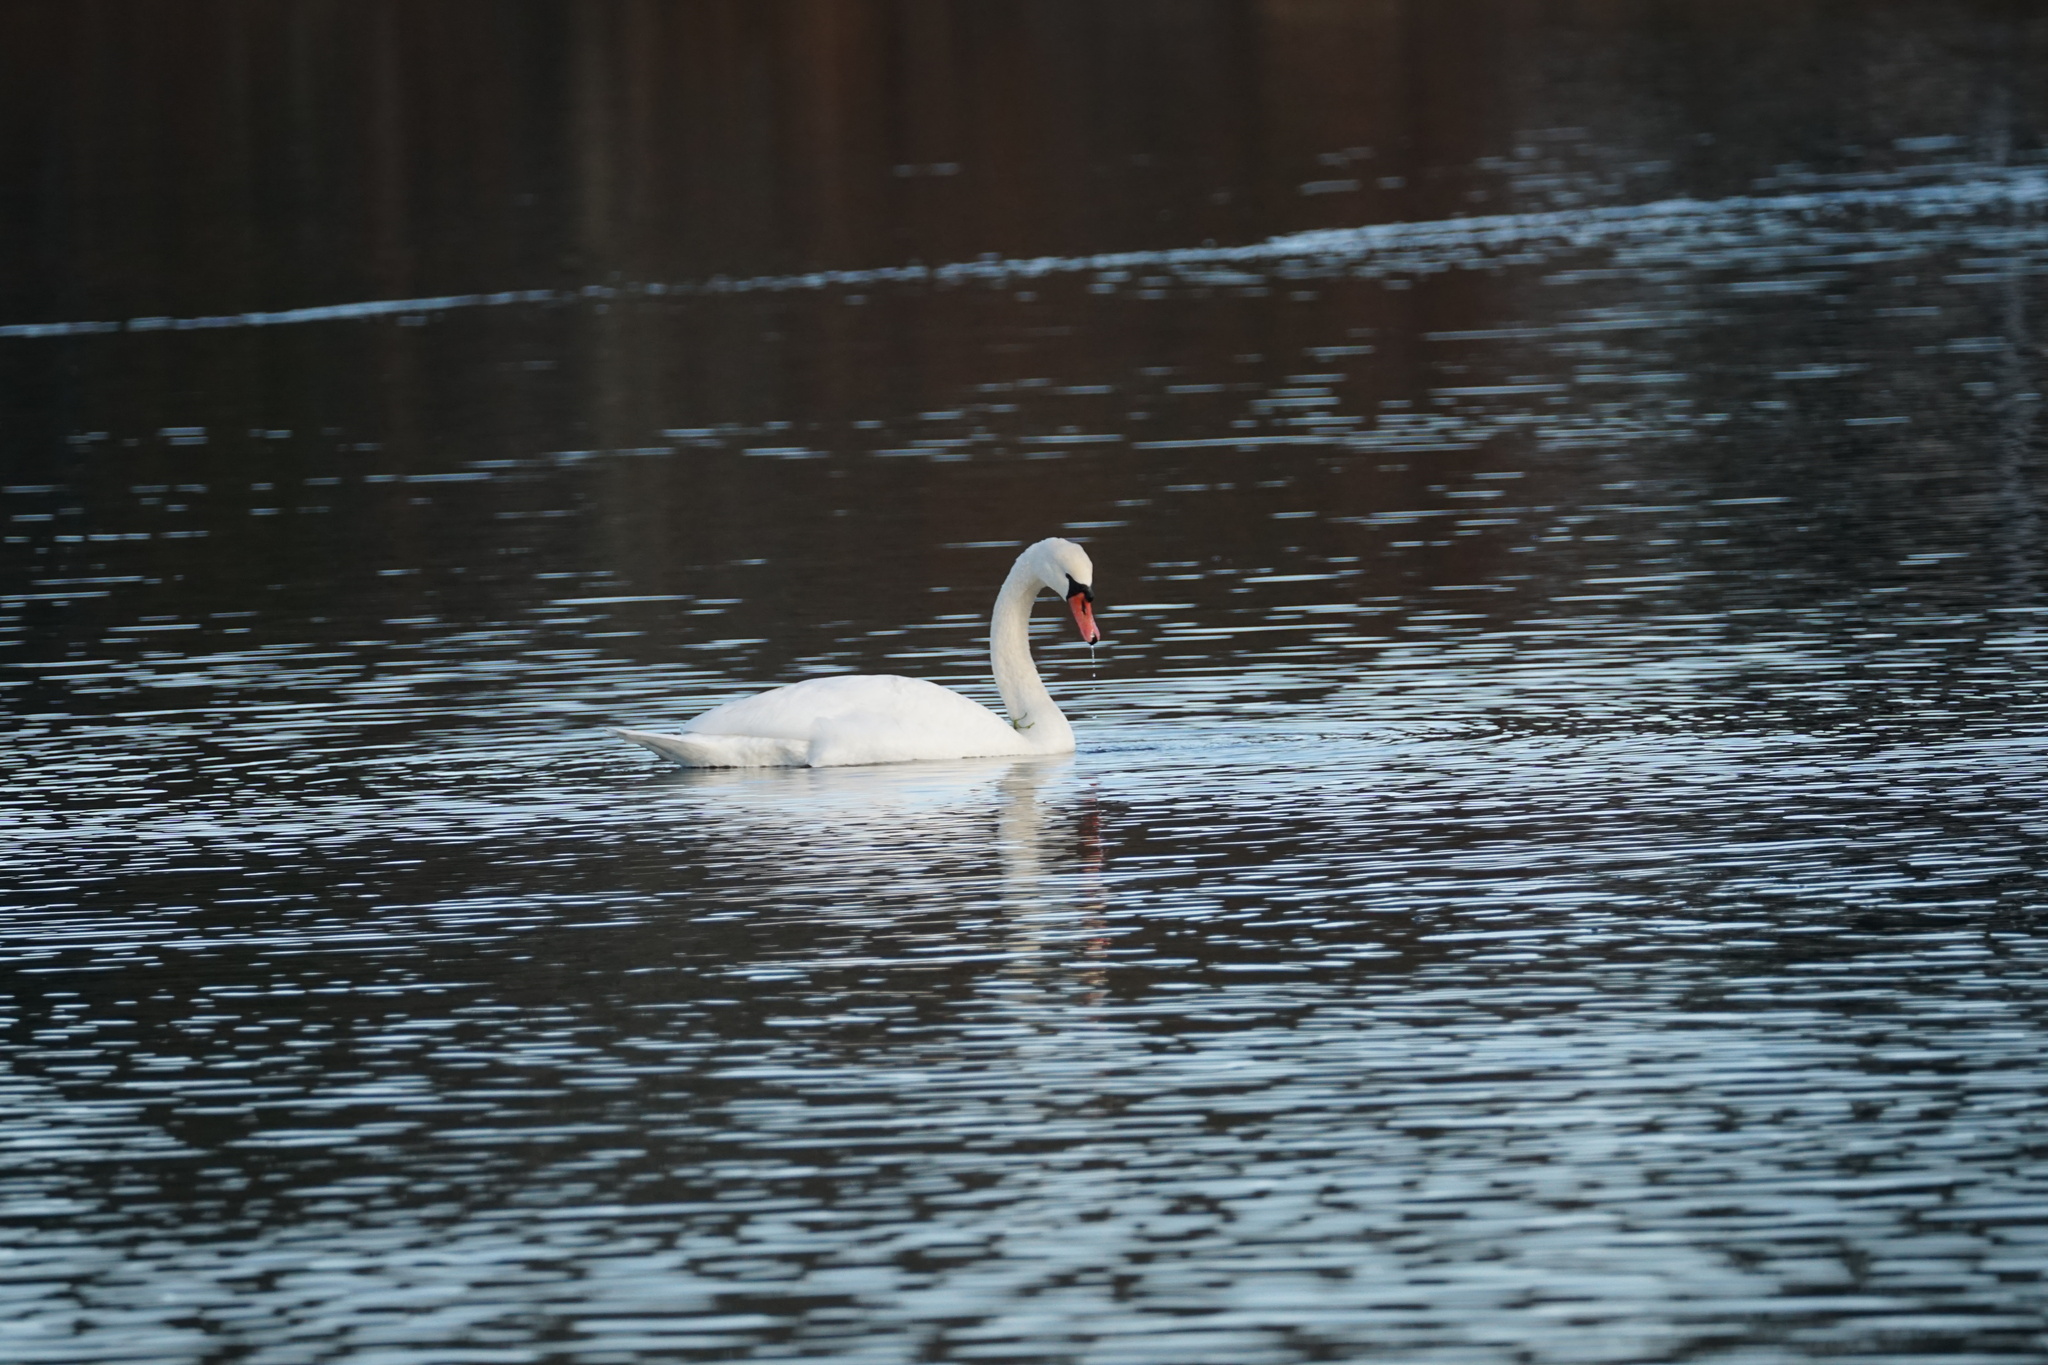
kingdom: Animalia
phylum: Chordata
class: Aves
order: Anseriformes
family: Anatidae
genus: Cygnus
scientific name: Cygnus olor
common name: Mute swan
